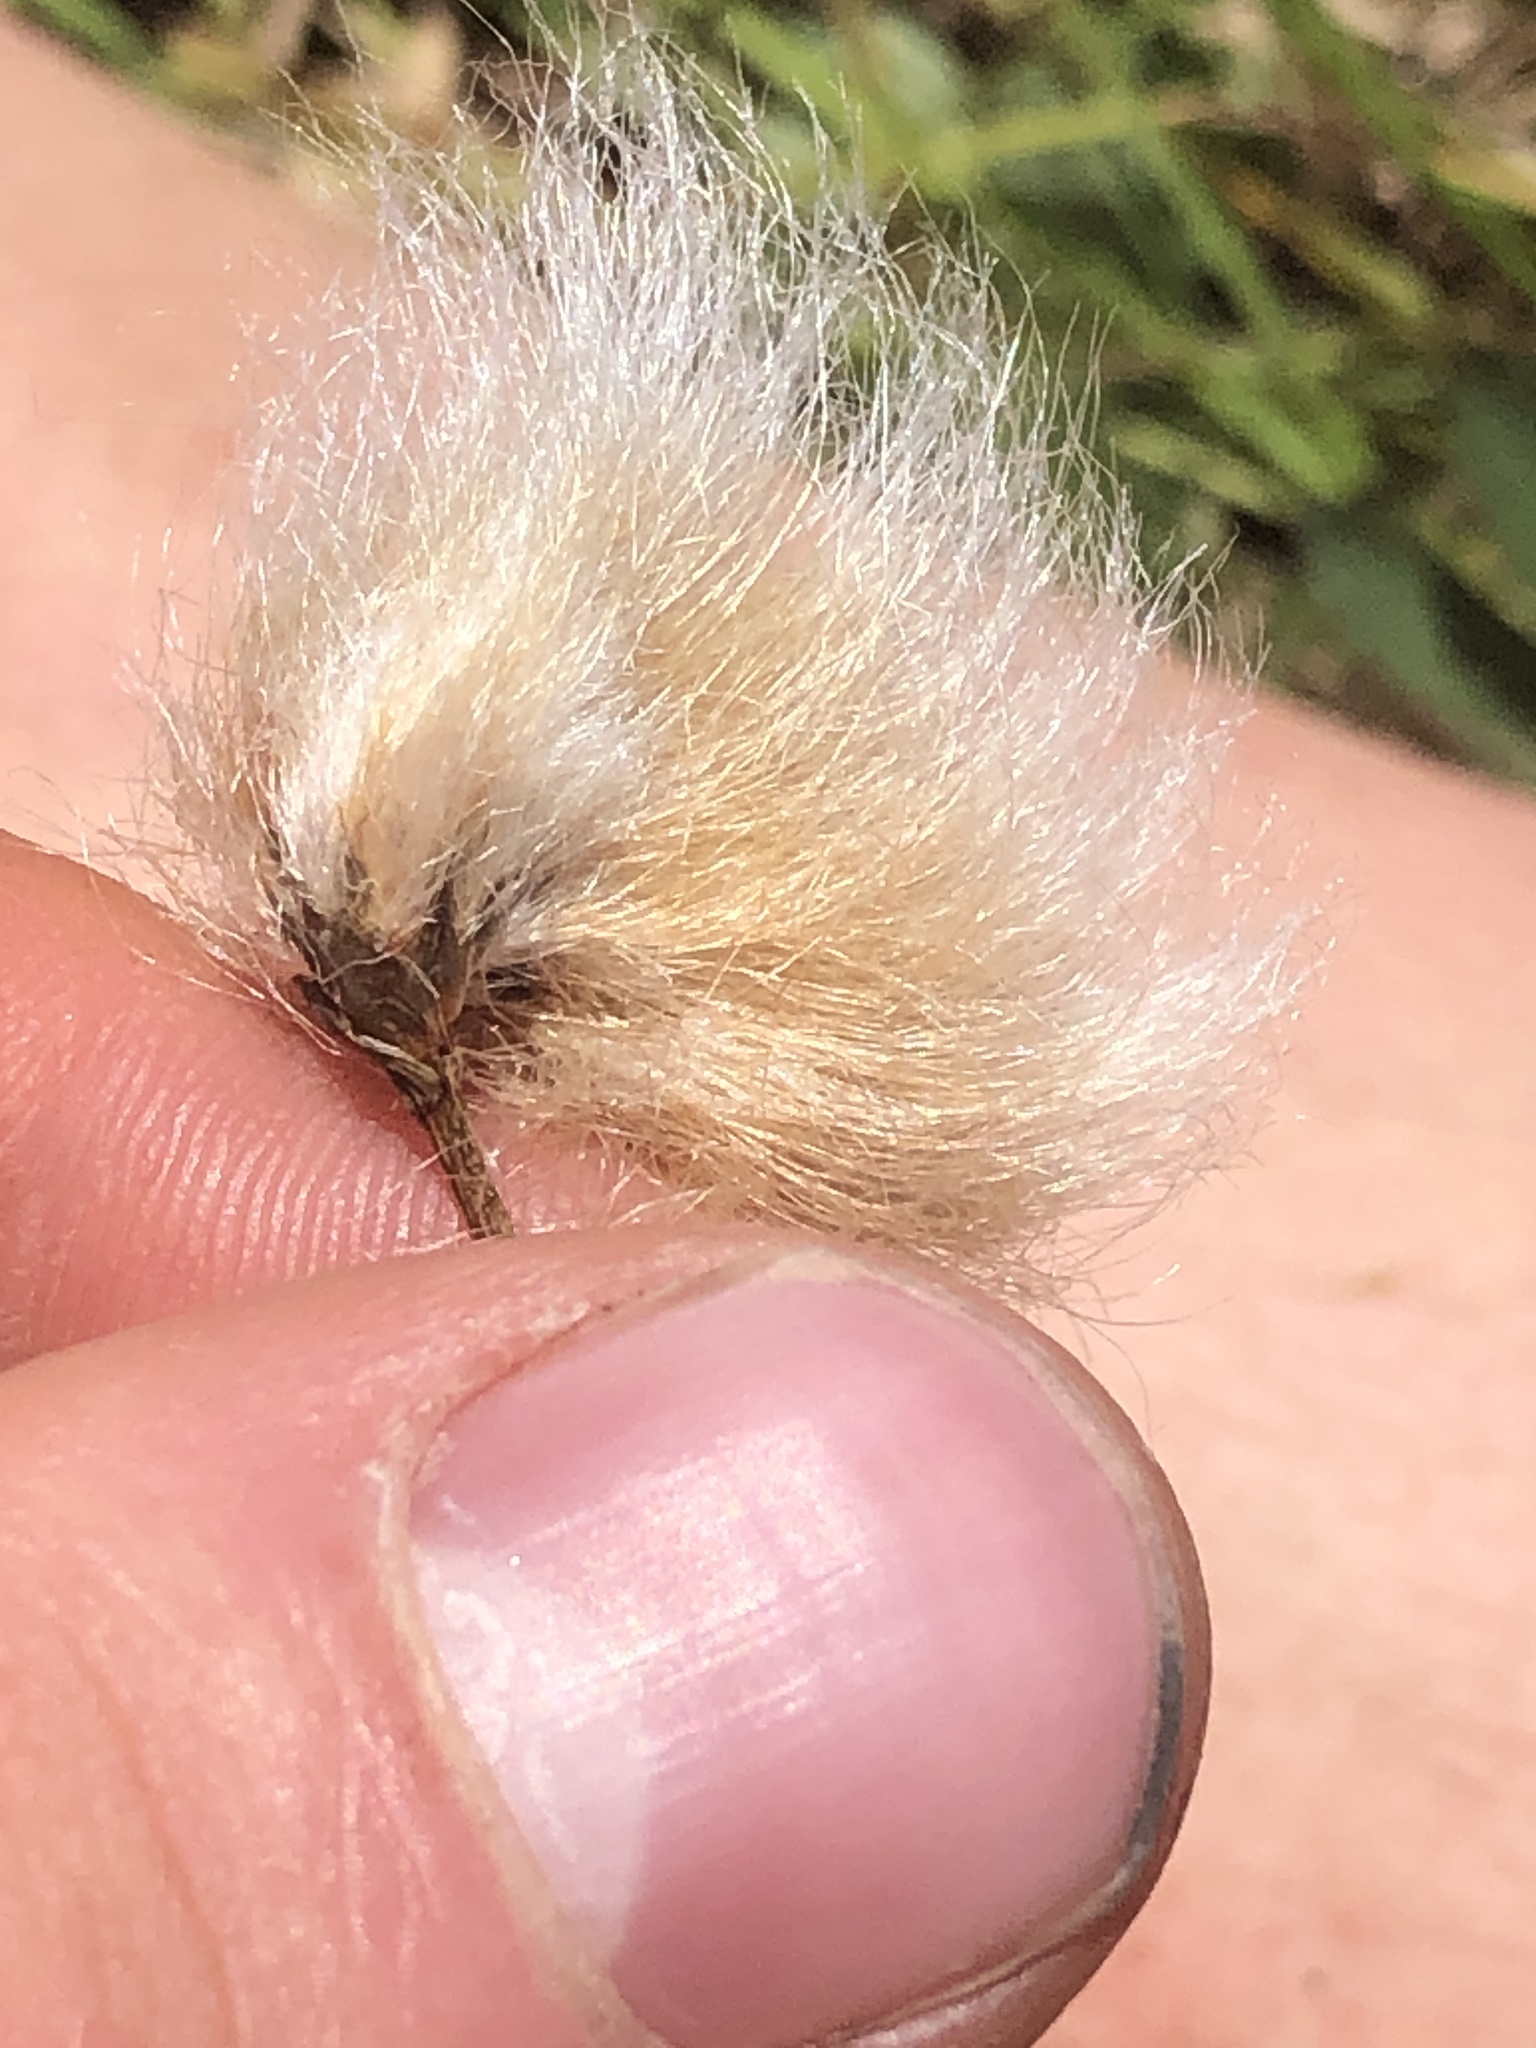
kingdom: Plantae
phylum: Tracheophyta
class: Liliopsida
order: Poales
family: Cyperaceae
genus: Eriophorum
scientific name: Eriophorum chamissonis
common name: Chamisso's cottongrass
